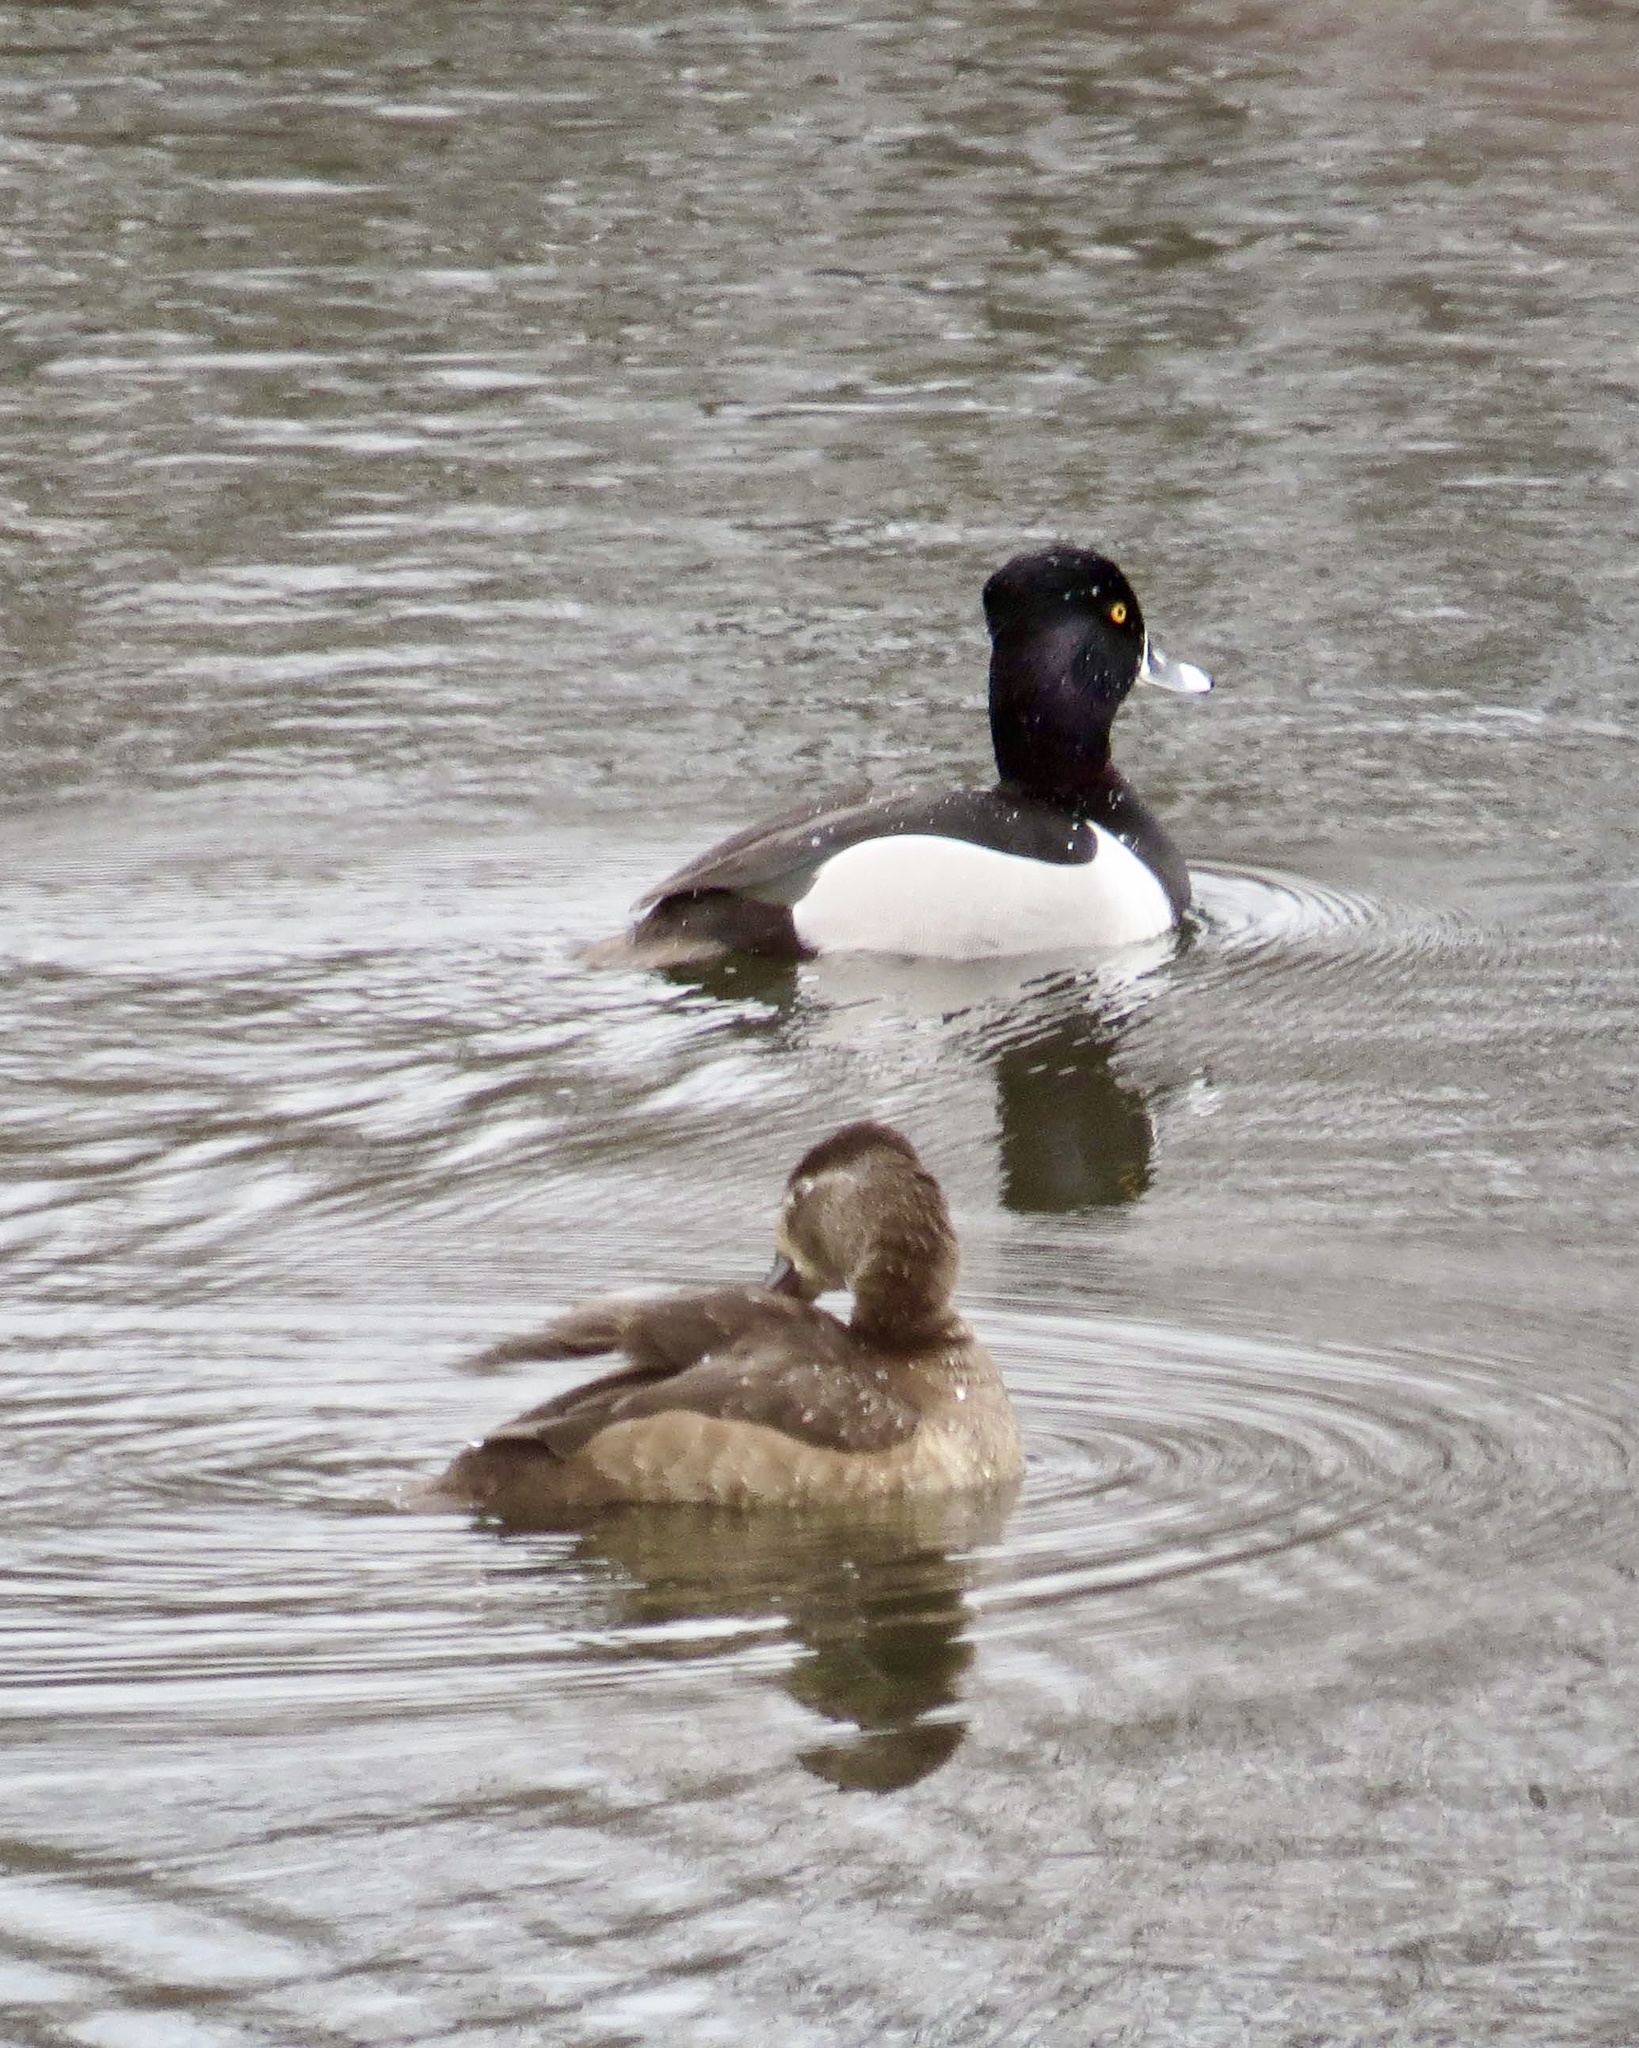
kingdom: Animalia
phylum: Chordata
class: Aves
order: Anseriformes
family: Anatidae
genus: Aythya
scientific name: Aythya collaris
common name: Ring-necked duck
